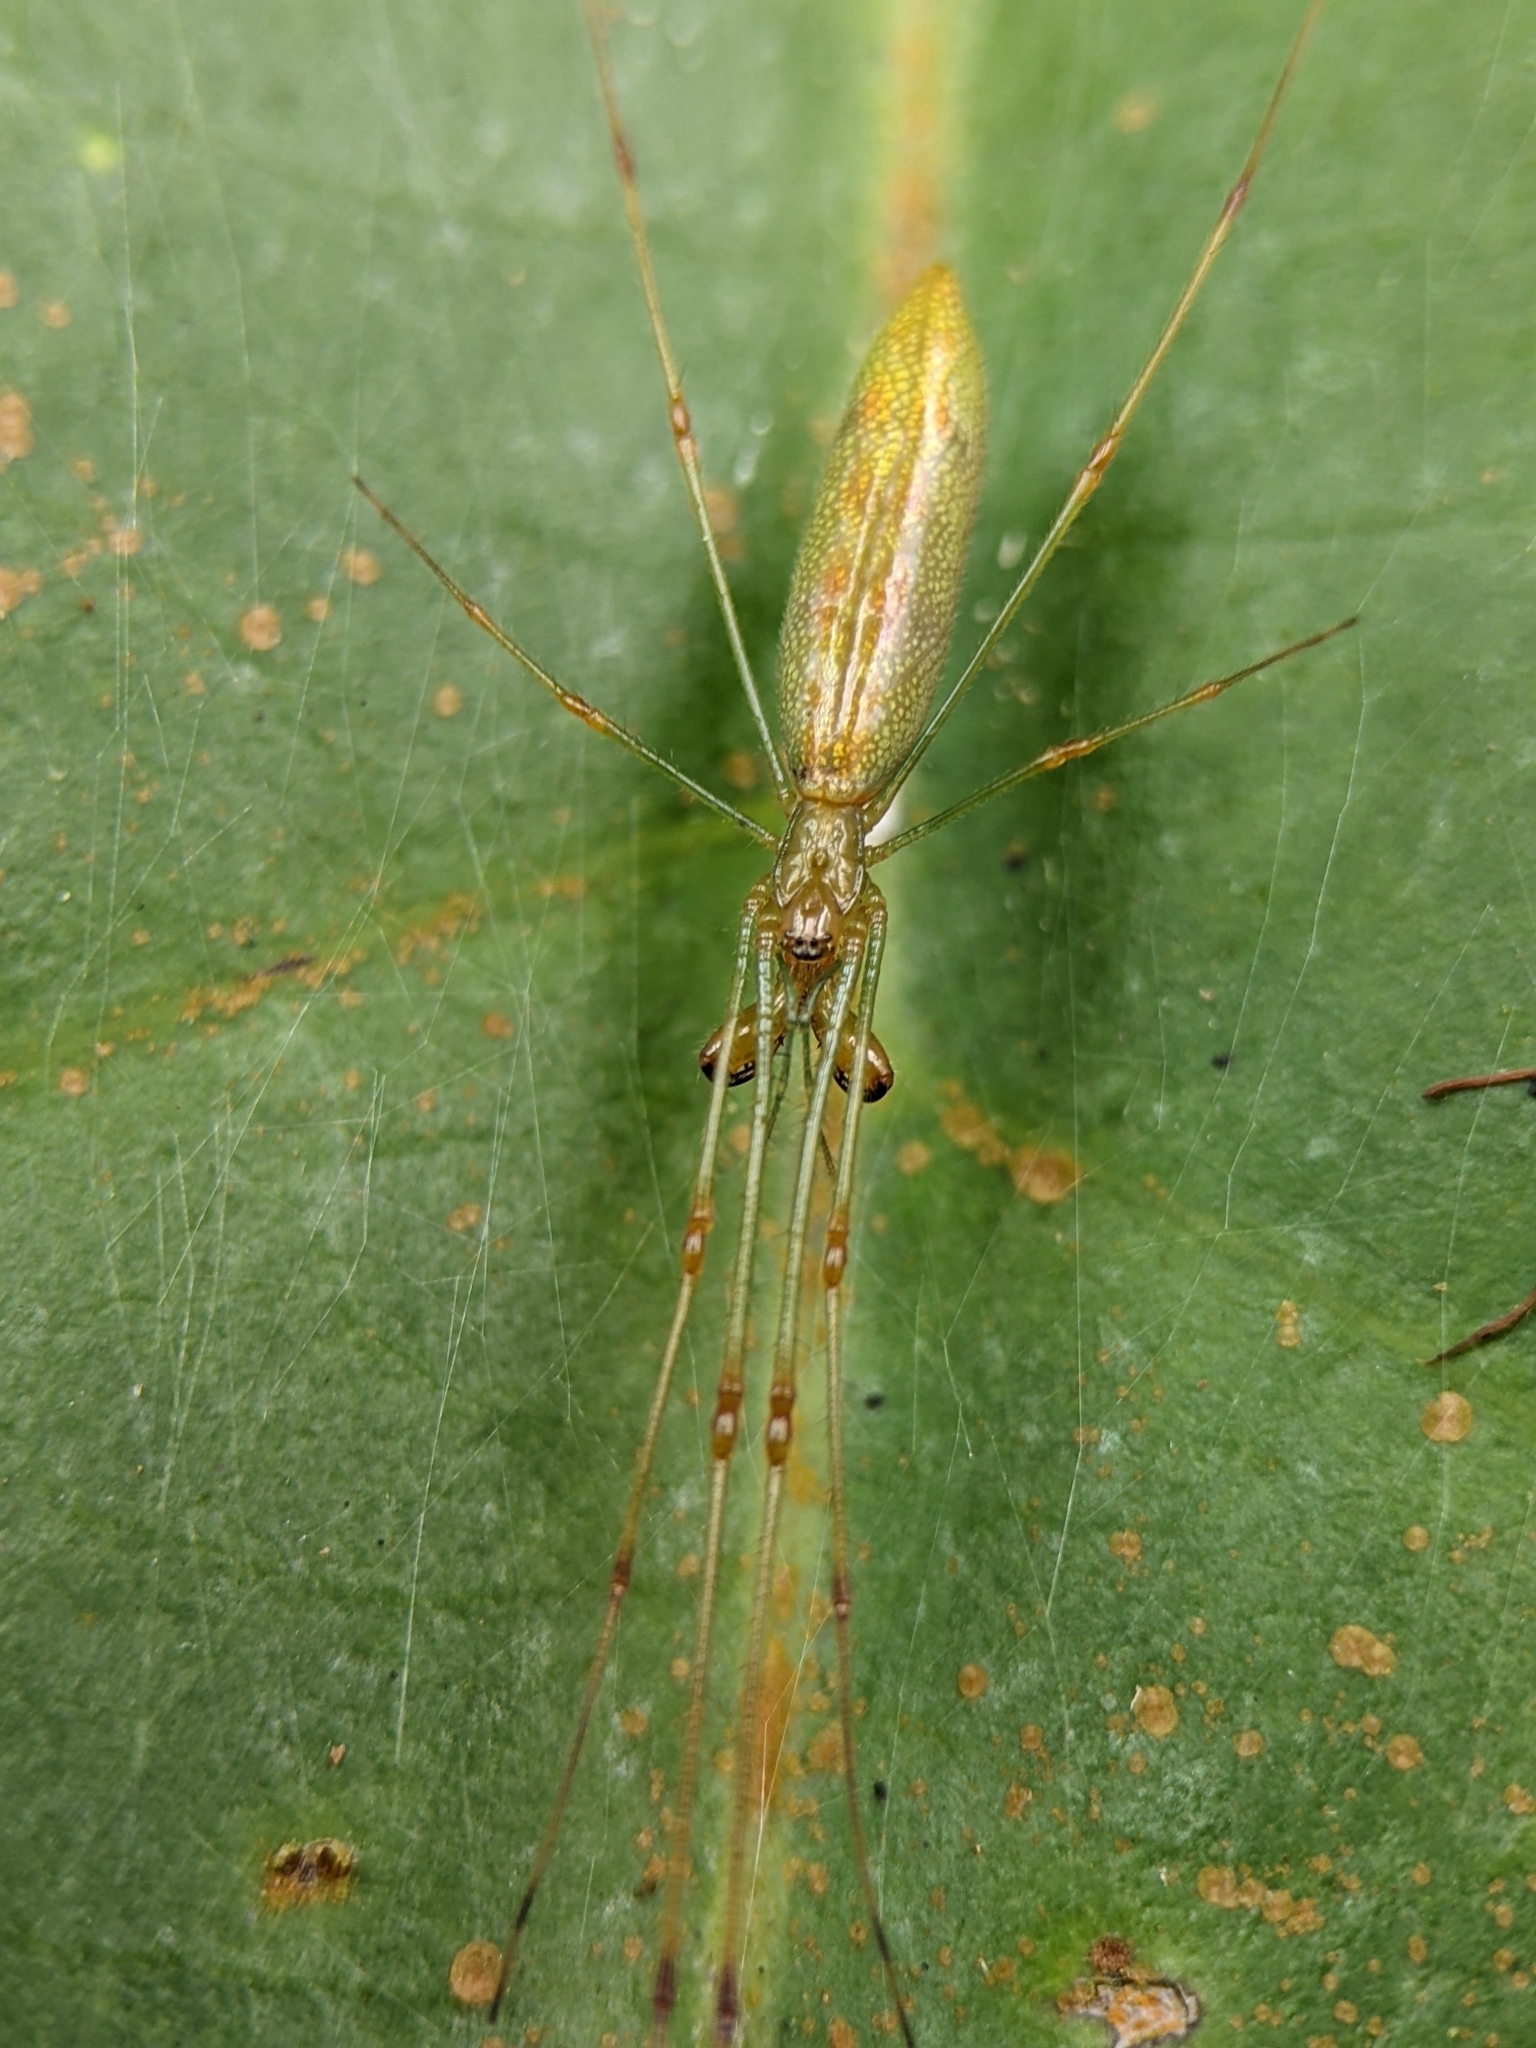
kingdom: Animalia
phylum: Arthropoda
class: Arachnida
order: Araneae
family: Tetragnathidae
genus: Tetragnatha
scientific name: Tetragnatha hasselti
